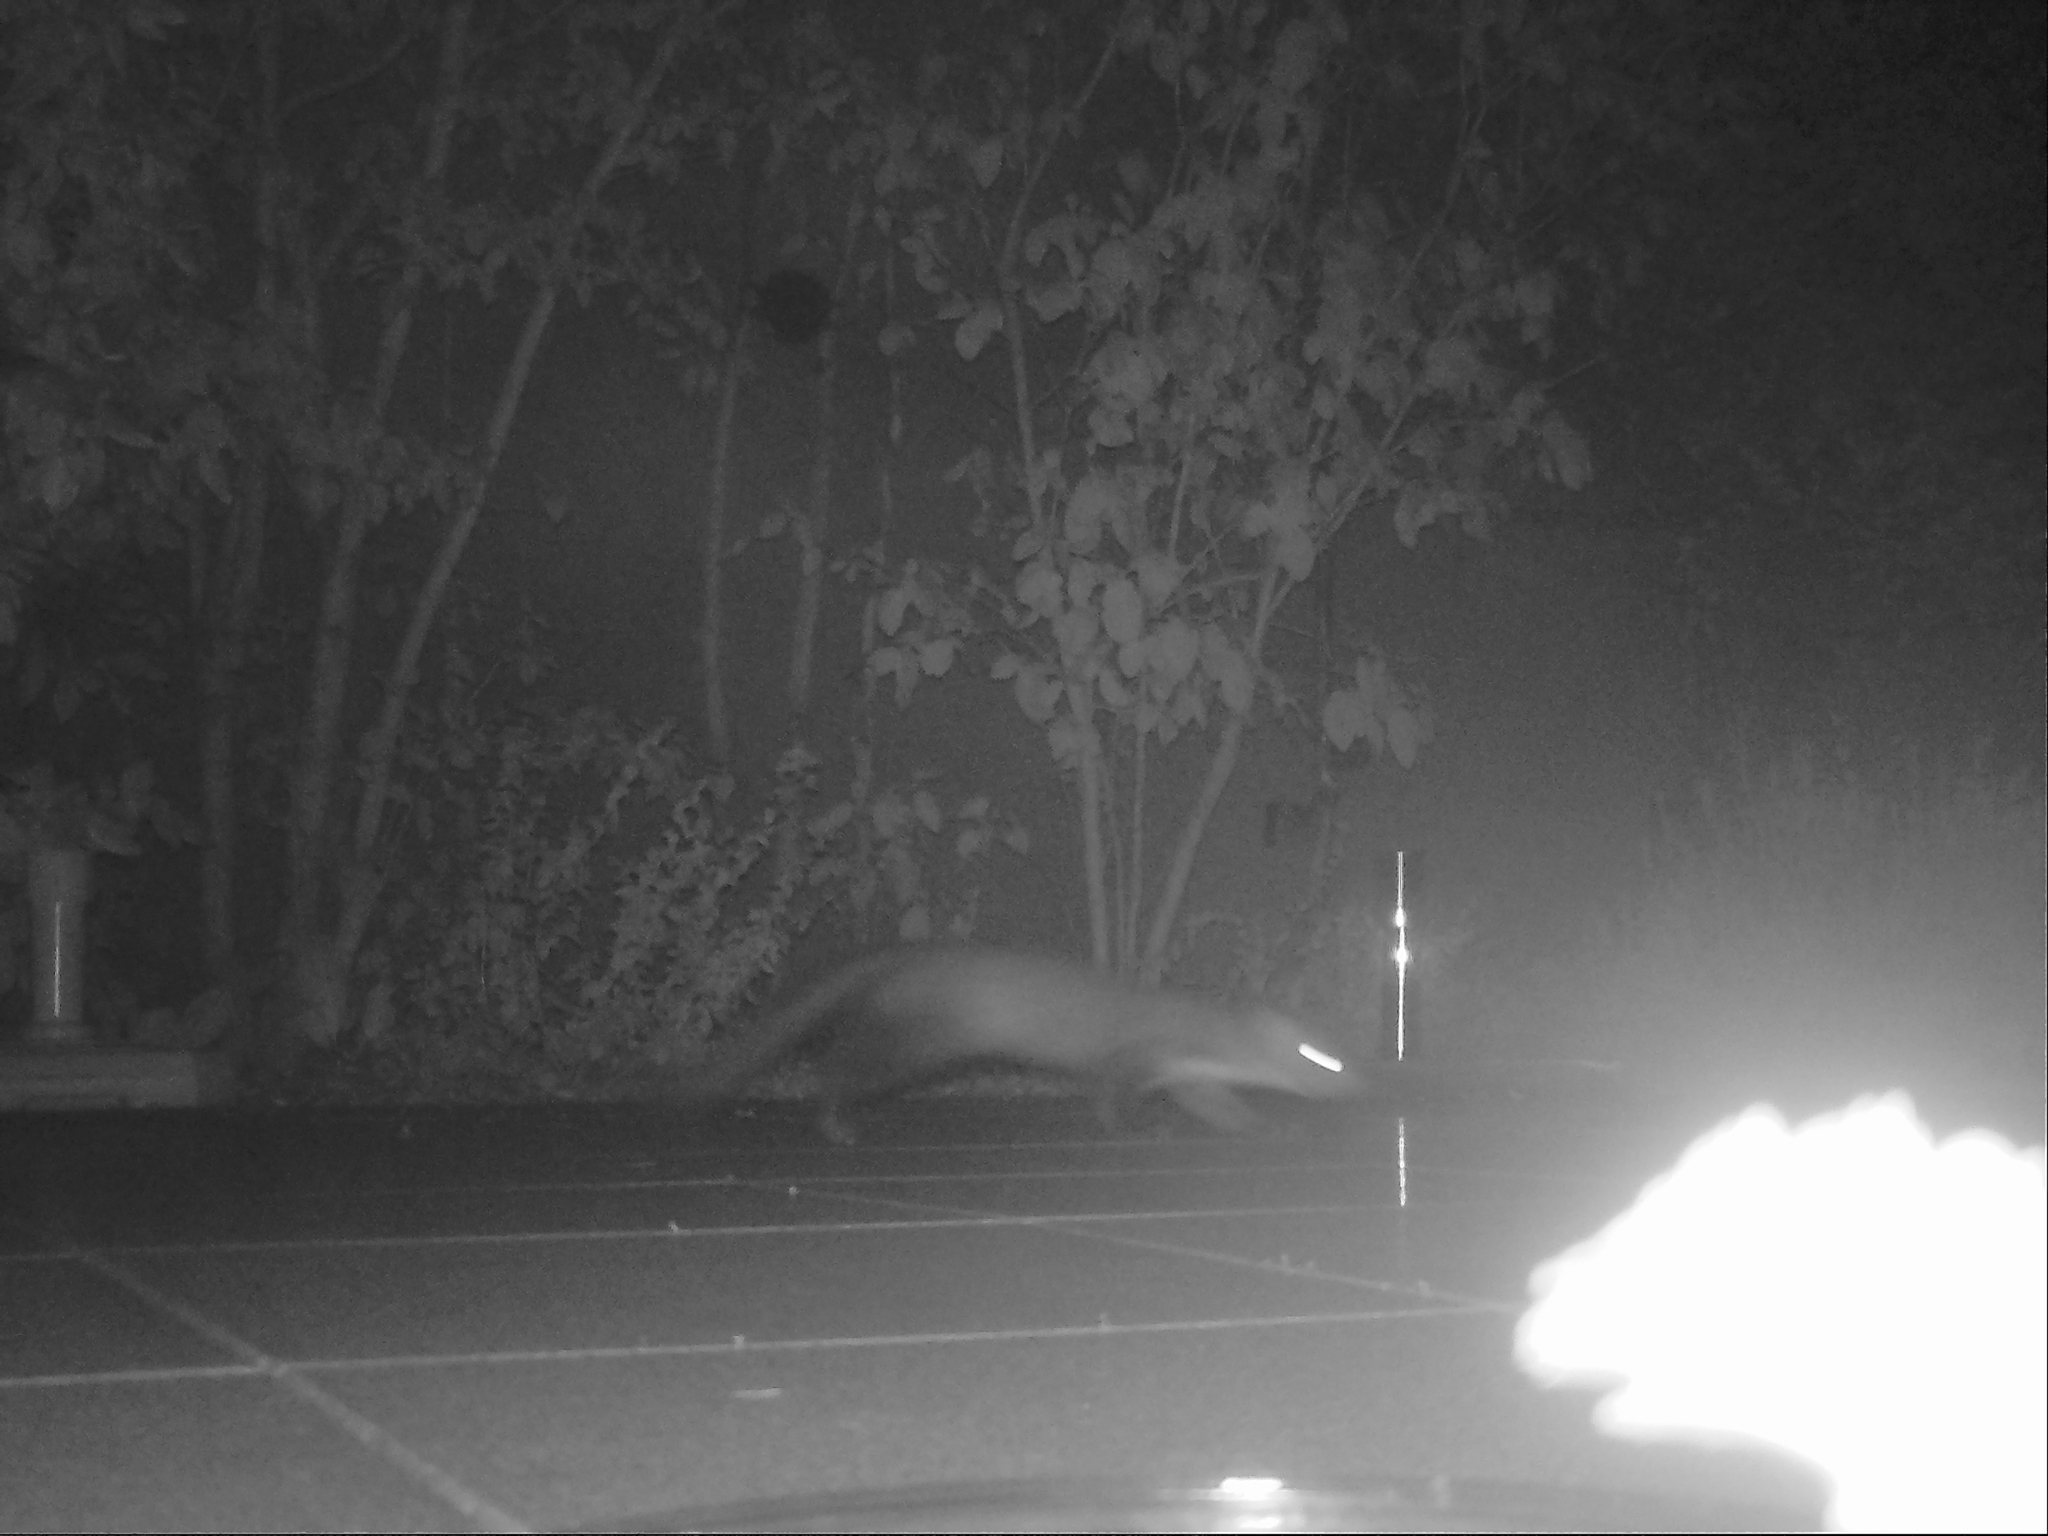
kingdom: Animalia
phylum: Chordata
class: Mammalia
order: Carnivora
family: Mustelidae
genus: Martes
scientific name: Martes foina
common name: Beech marten
